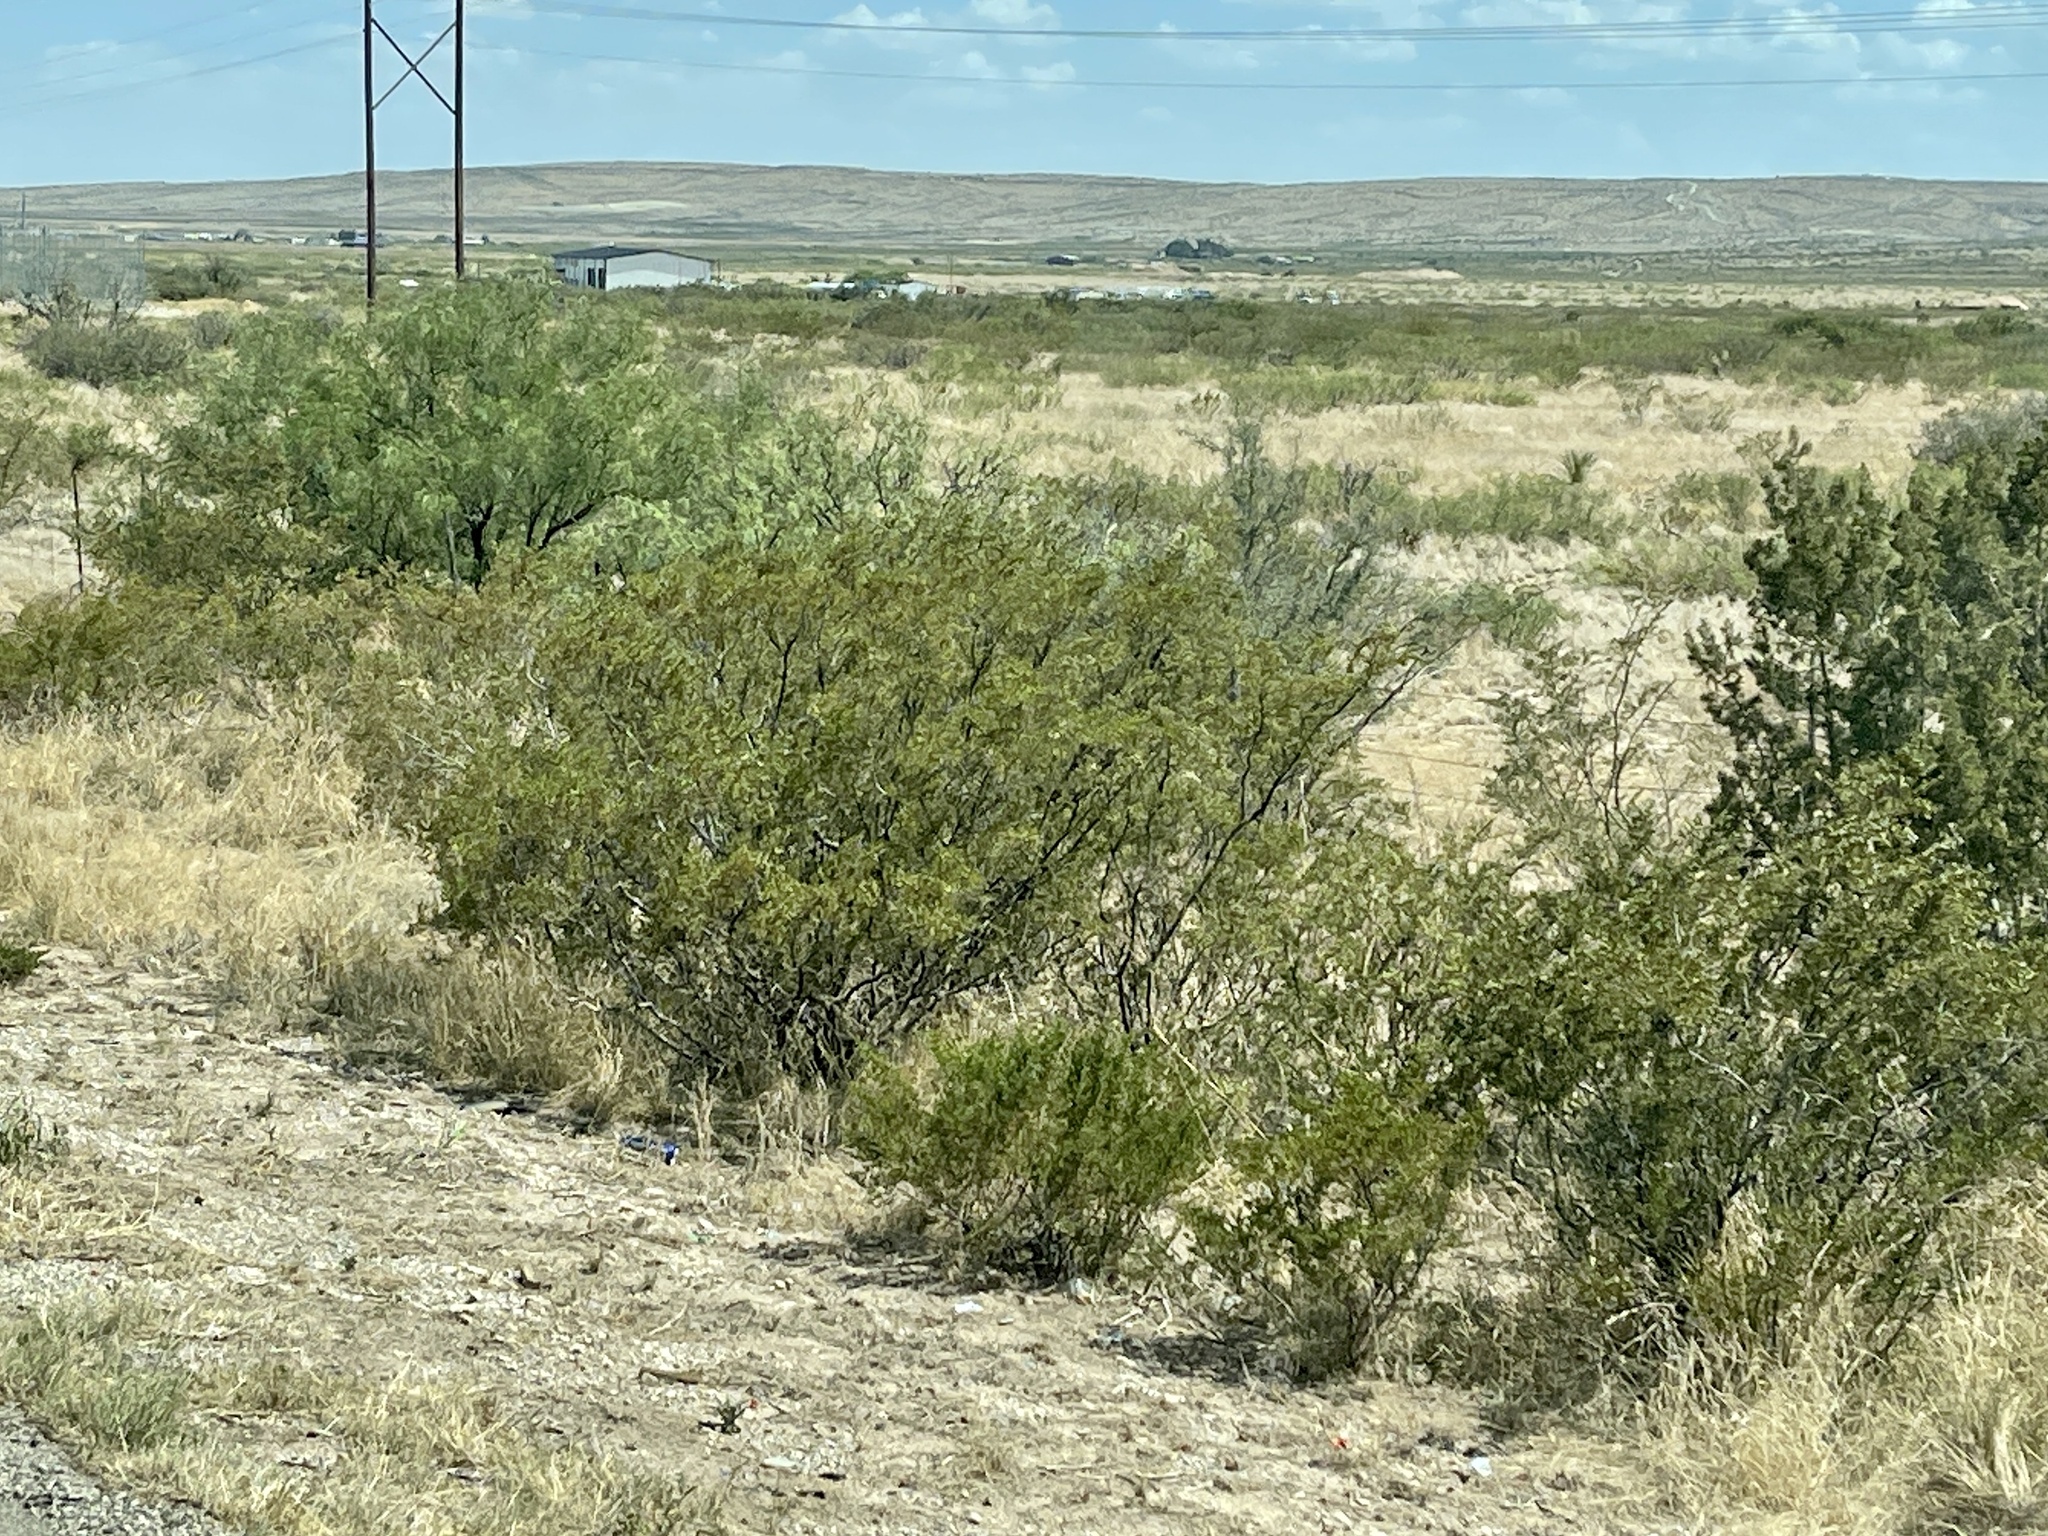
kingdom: Plantae
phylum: Tracheophyta
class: Magnoliopsida
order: Zygophyllales
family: Zygophyllaceae
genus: Larrea
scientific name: Larrea tridentata
